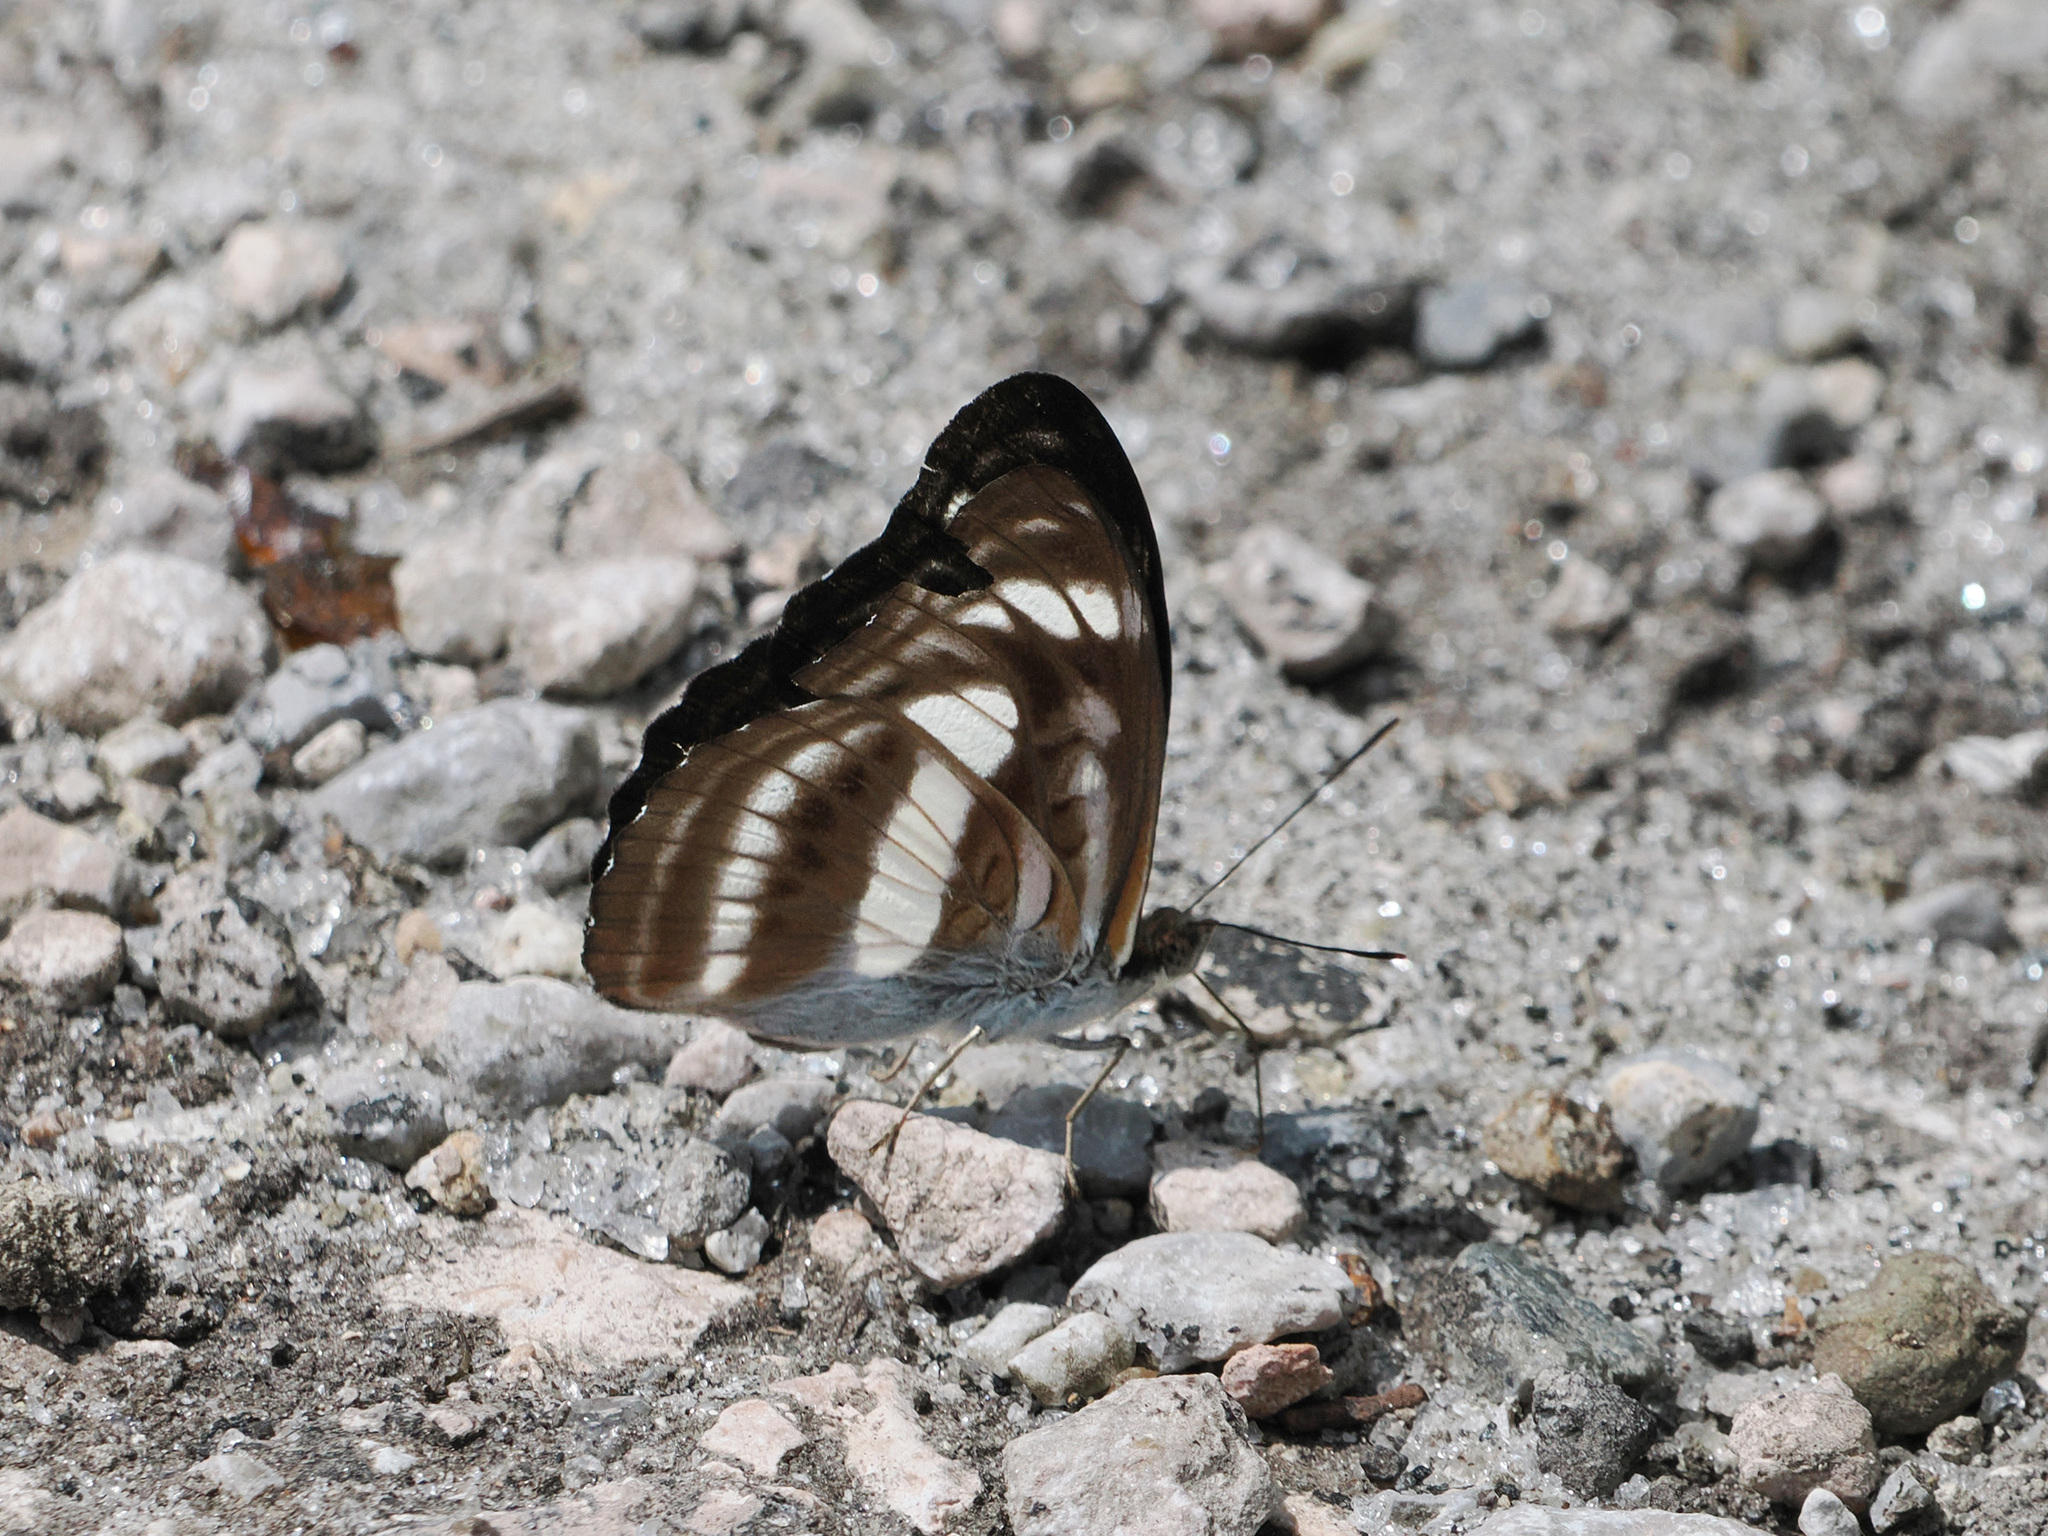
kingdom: Animalia
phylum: Arthropoda
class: Insecta
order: Lepidoptera
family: Nymphalidae
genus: Parathyma
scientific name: Parathyma selenophora
